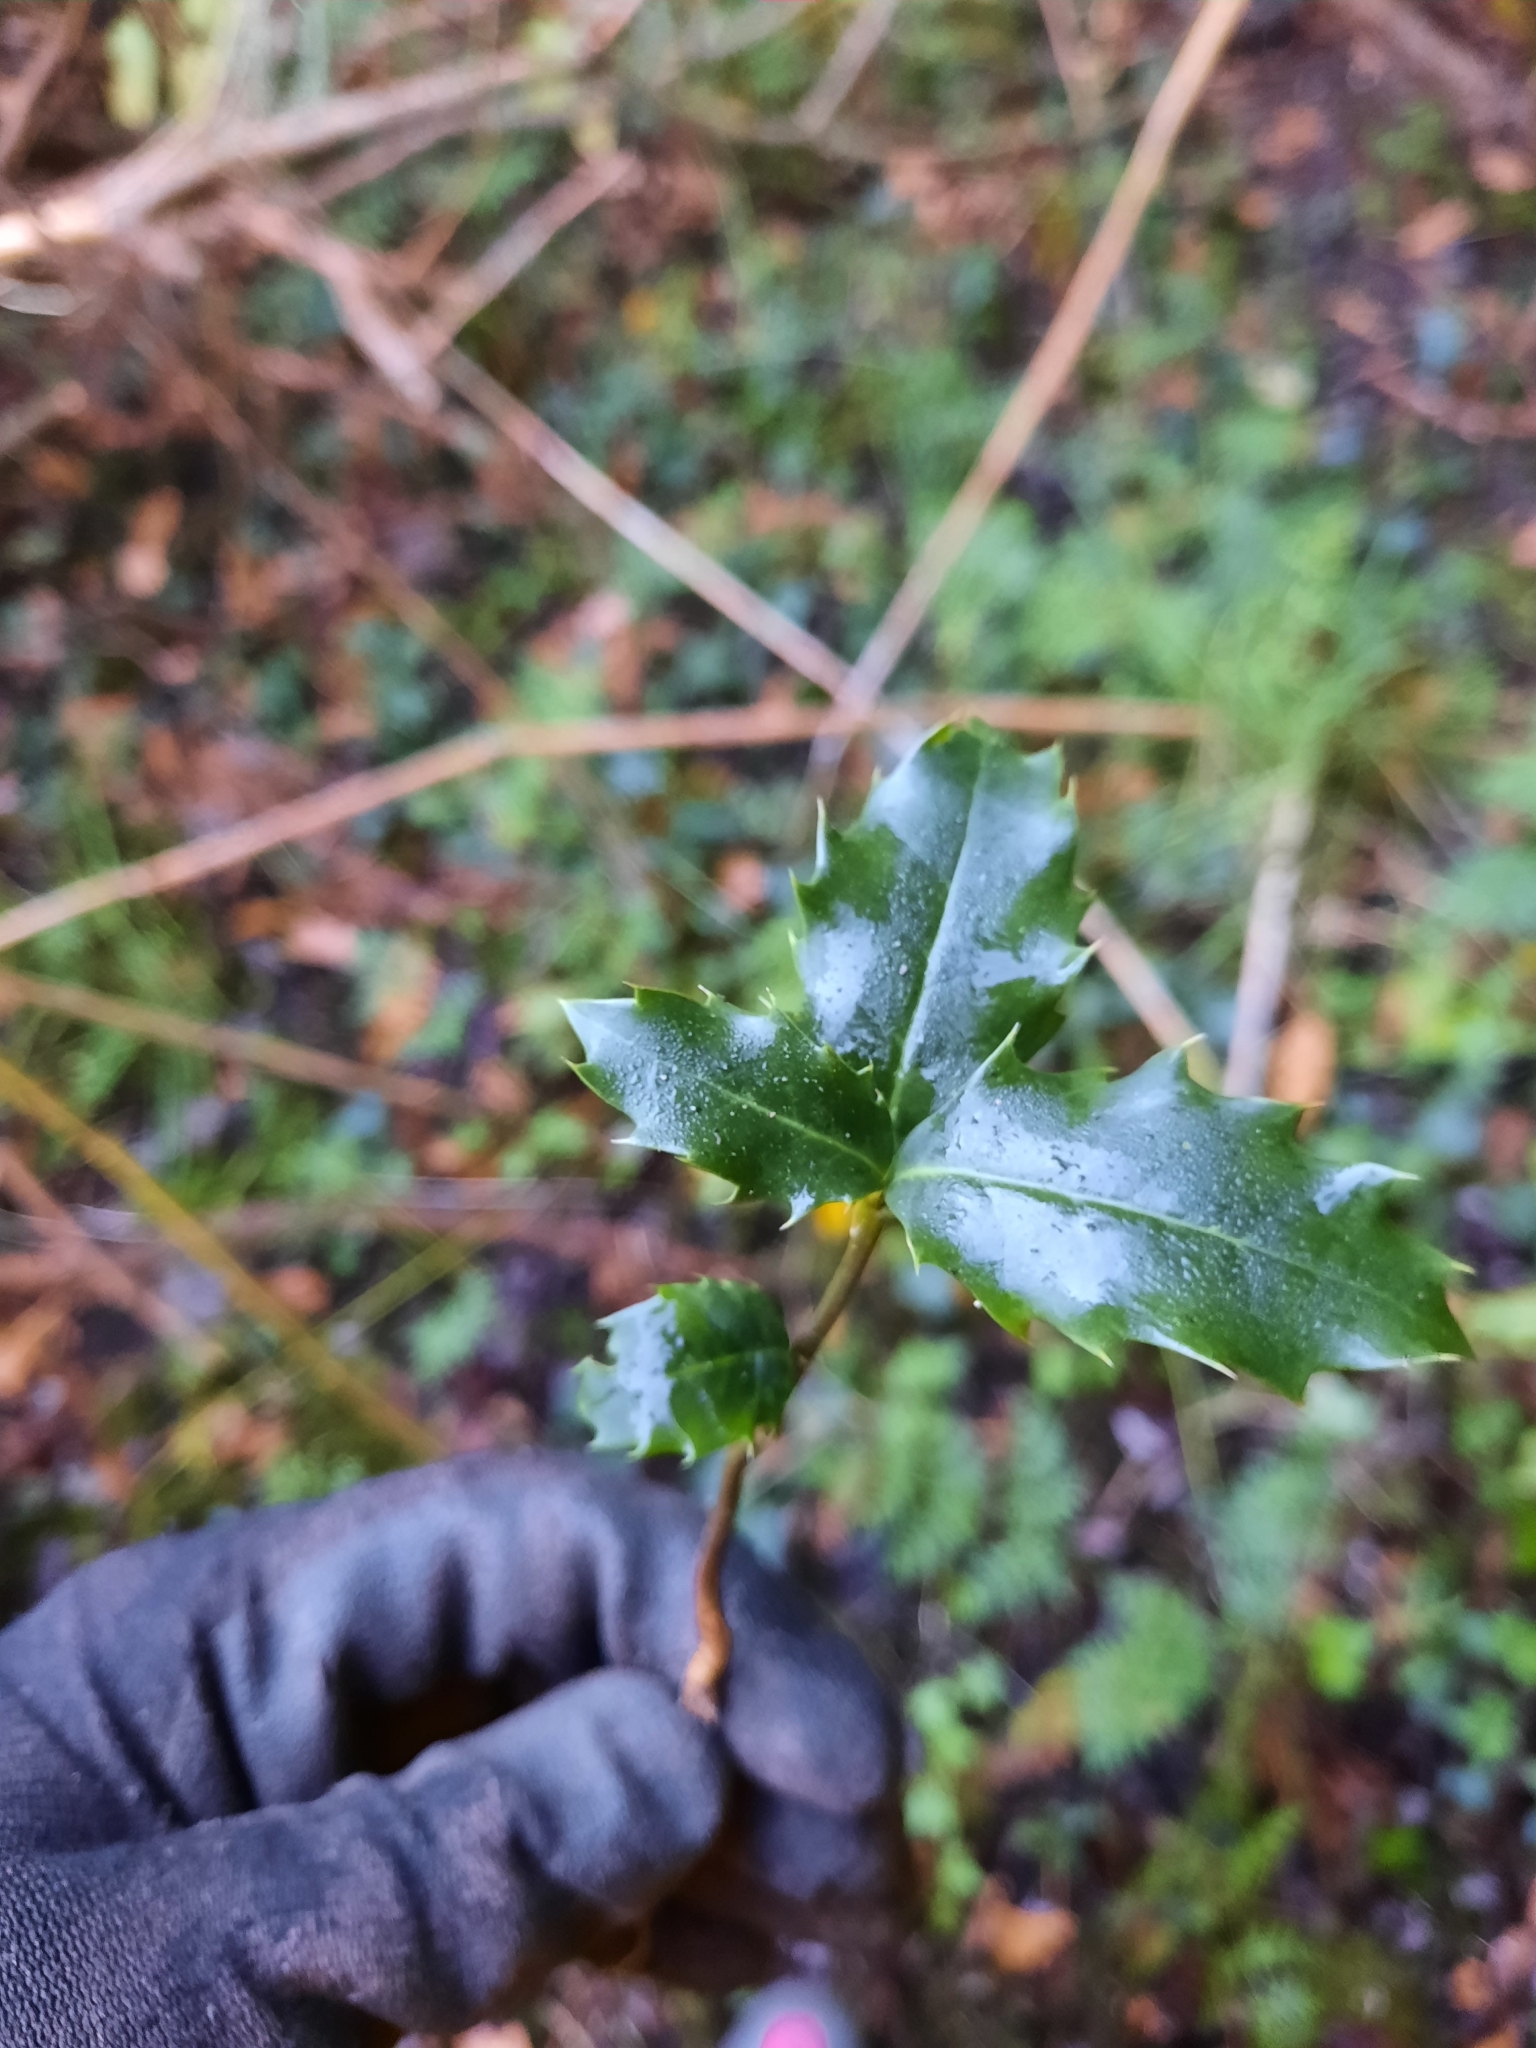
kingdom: Plantae
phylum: Tracheophyta
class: Magnoliopsida
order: Aquifoliales
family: Aquifoliaceae
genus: Ilex
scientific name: Ilex aquifolium
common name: English holly
